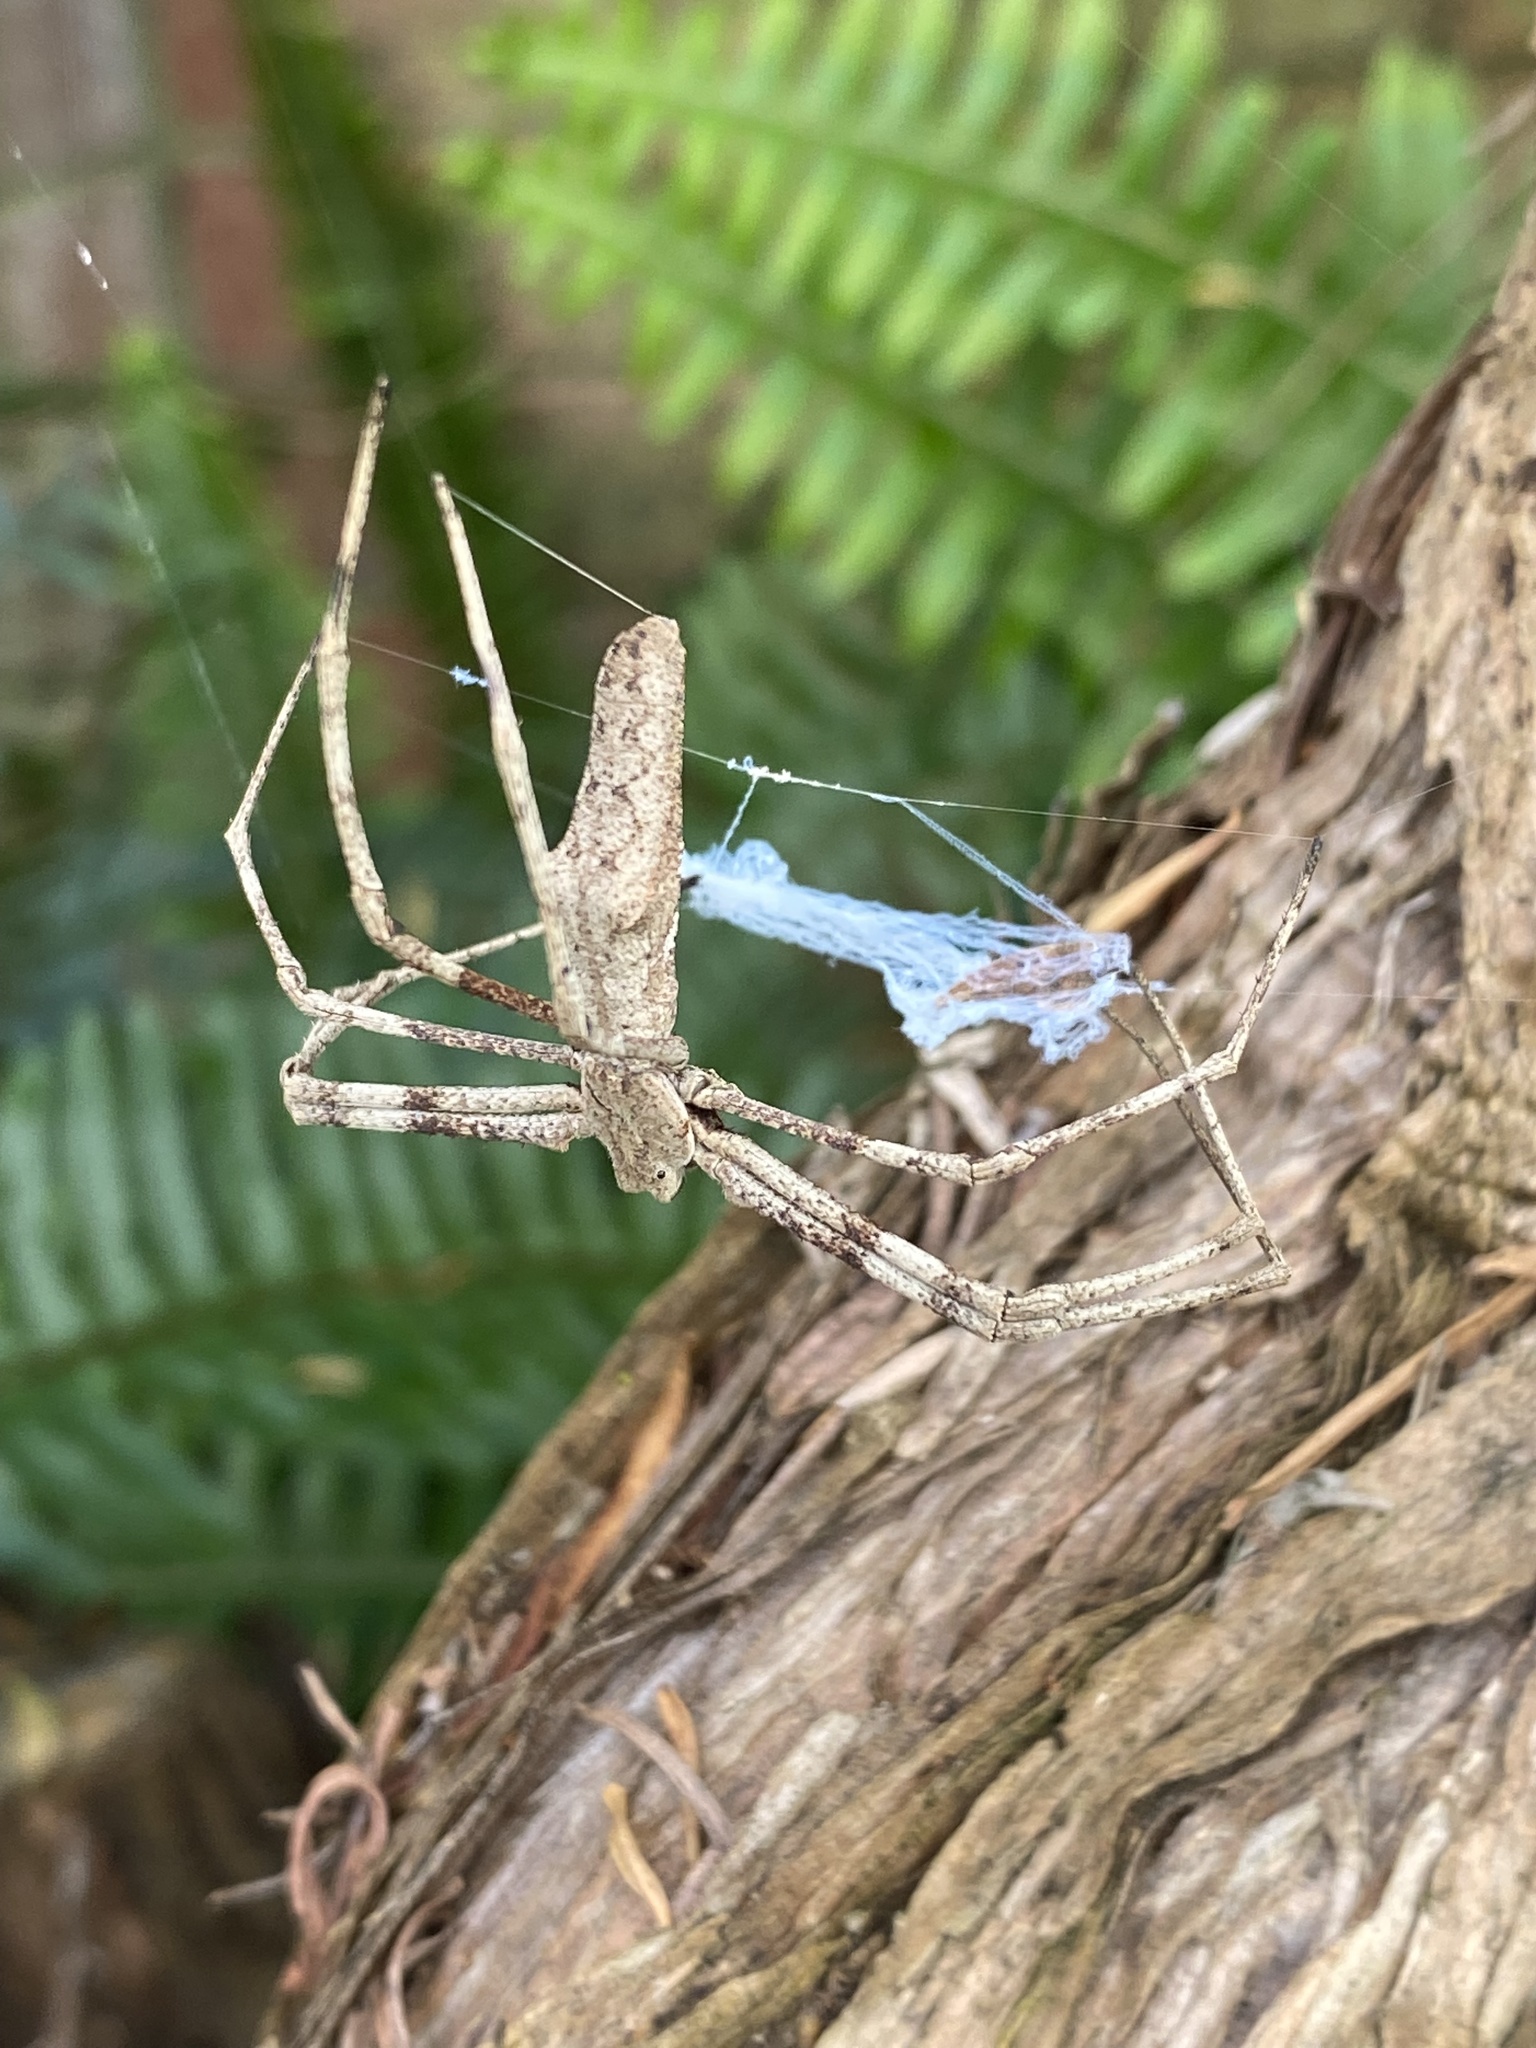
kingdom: Animalia
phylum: Arthropoda
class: Arachnida
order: Araneae
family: Deinopidae
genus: Deinopis
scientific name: Deinopis subrufa
